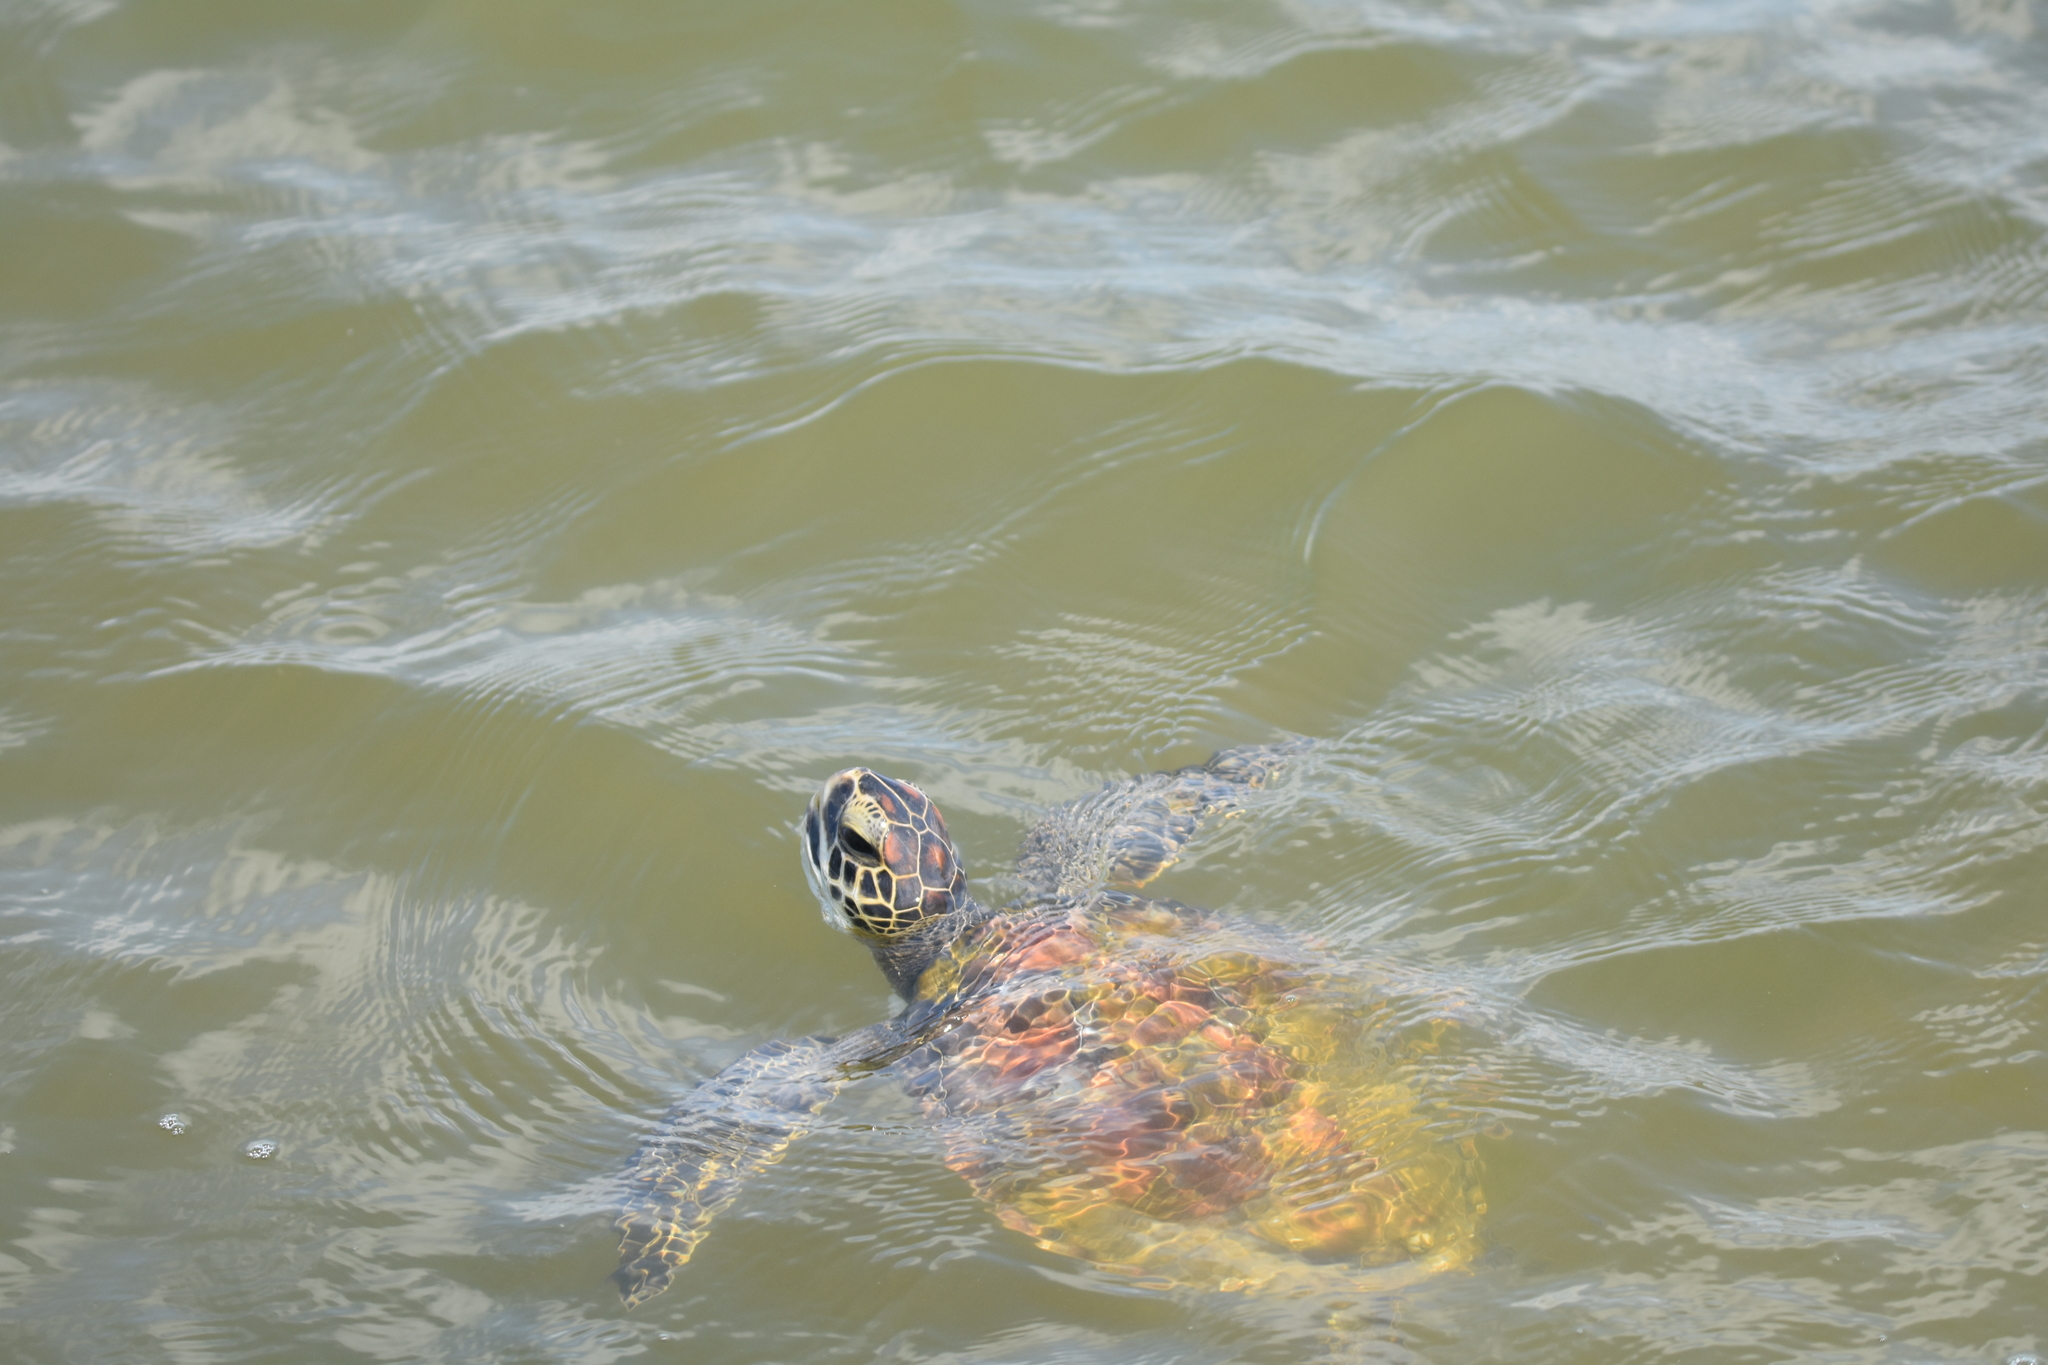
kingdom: Animalia
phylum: Chordata
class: Testudines
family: Cheloniidae
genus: Chelonia
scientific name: Chelonia mydas
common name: Green turtle
